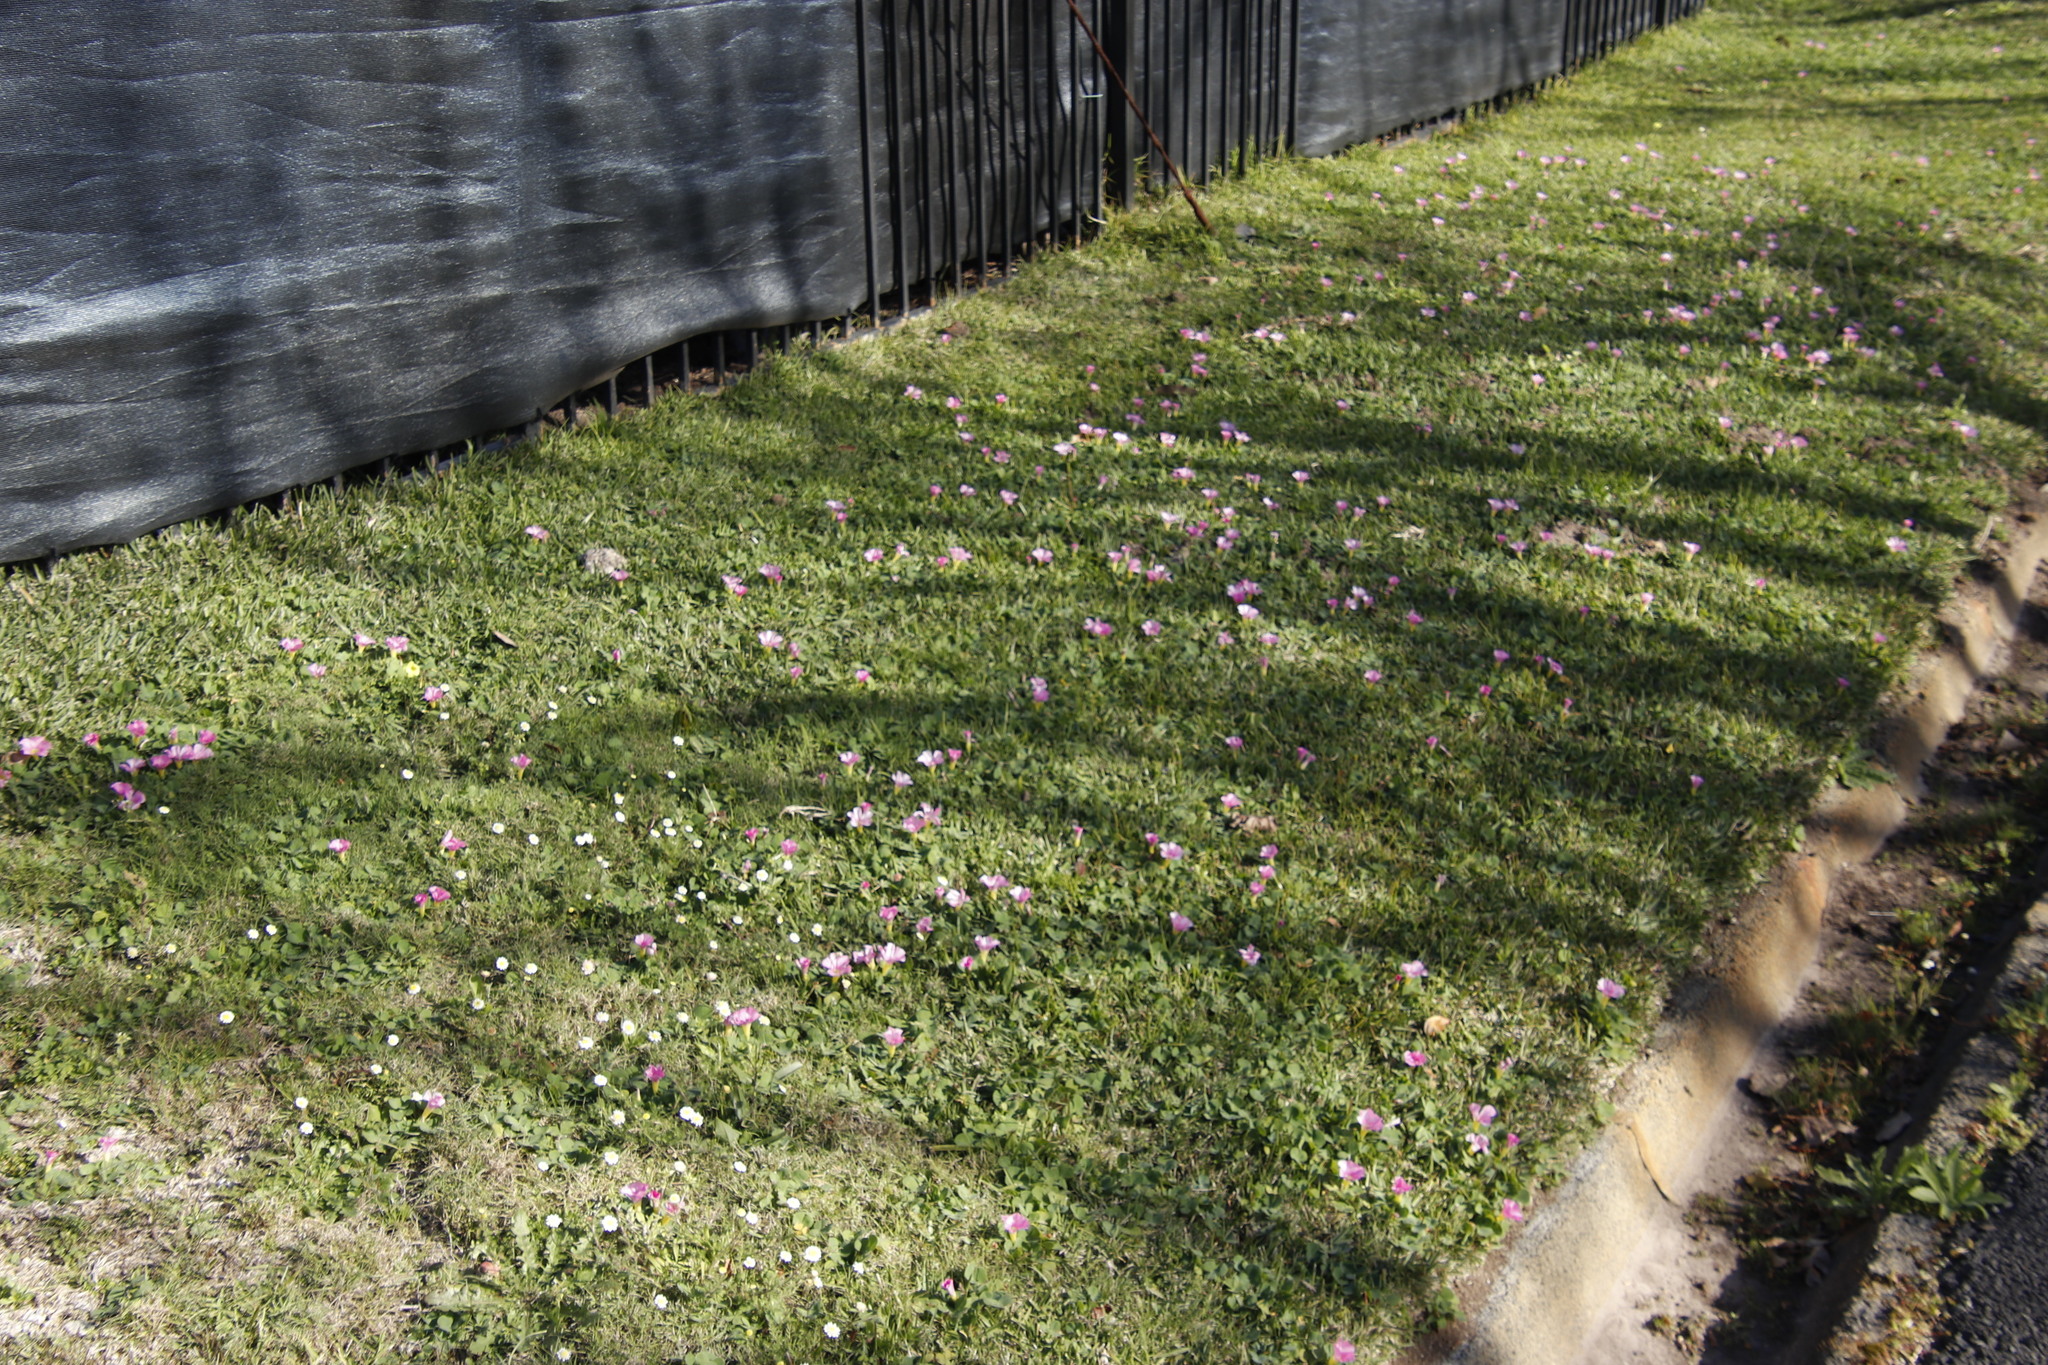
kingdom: Plantae
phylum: Tracheophyta
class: Magnoliopsida
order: Oxalidales
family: Oxalidaceae
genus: Oxalis
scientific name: Oxalis purpurea
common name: Purple woodsorrel
